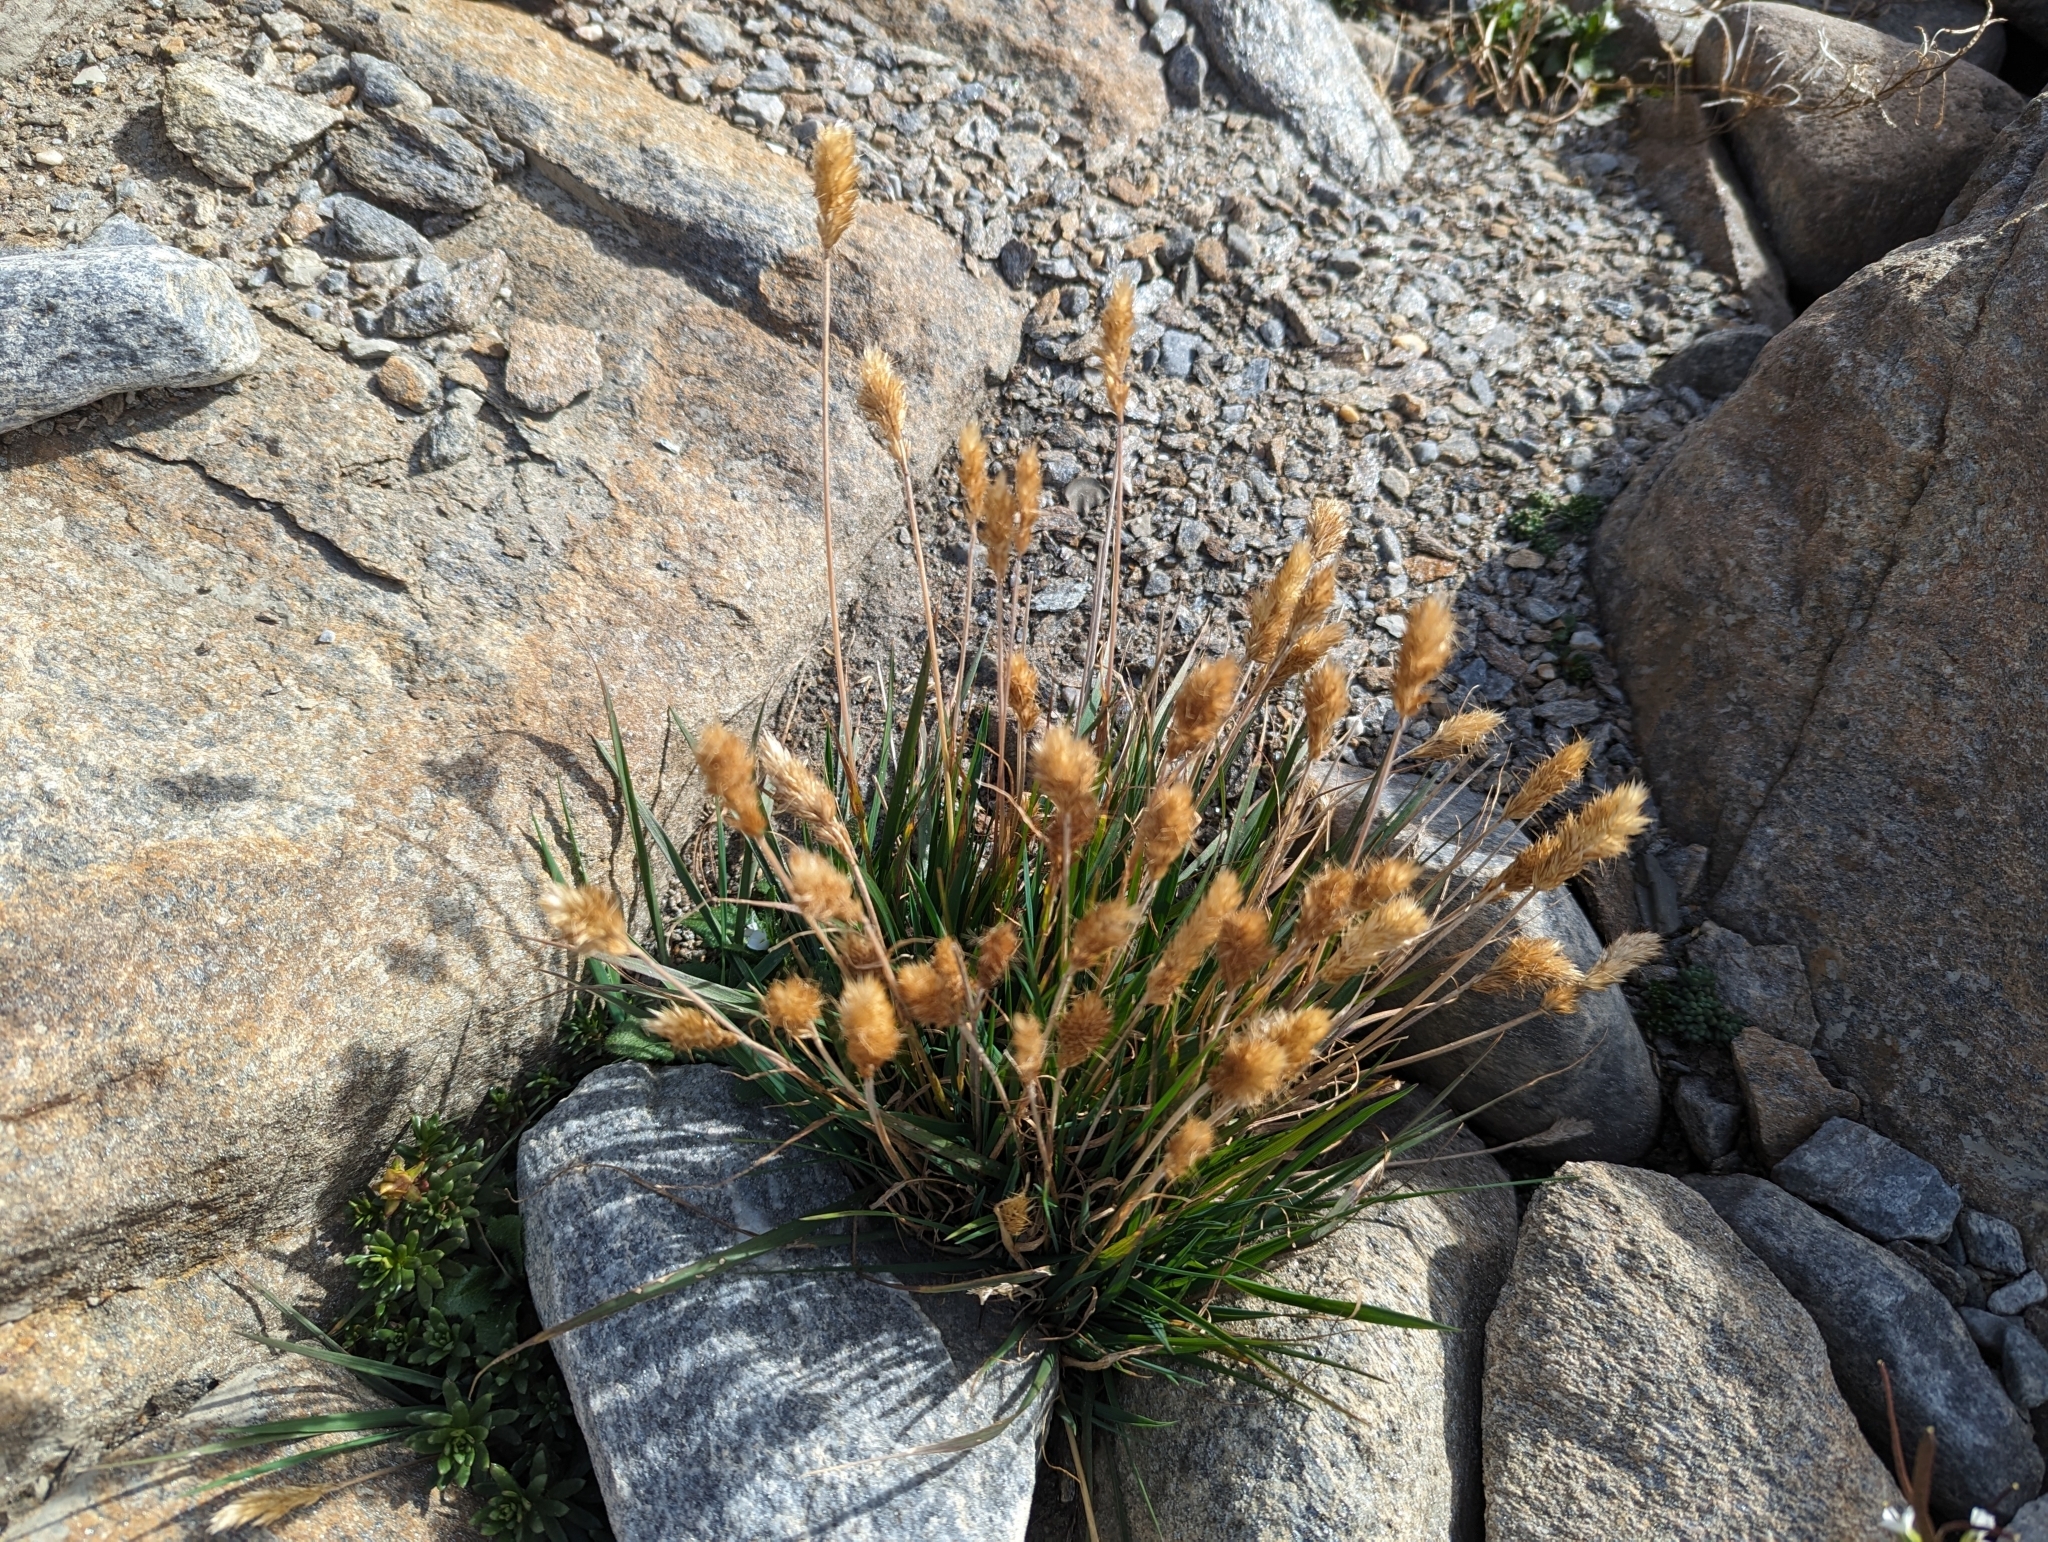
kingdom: Plantae
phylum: Tracheophyta
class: Liliopsida
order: Poales
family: Poaceae
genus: Koeleria
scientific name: Koeleria spicata
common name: Mountain trisetum
